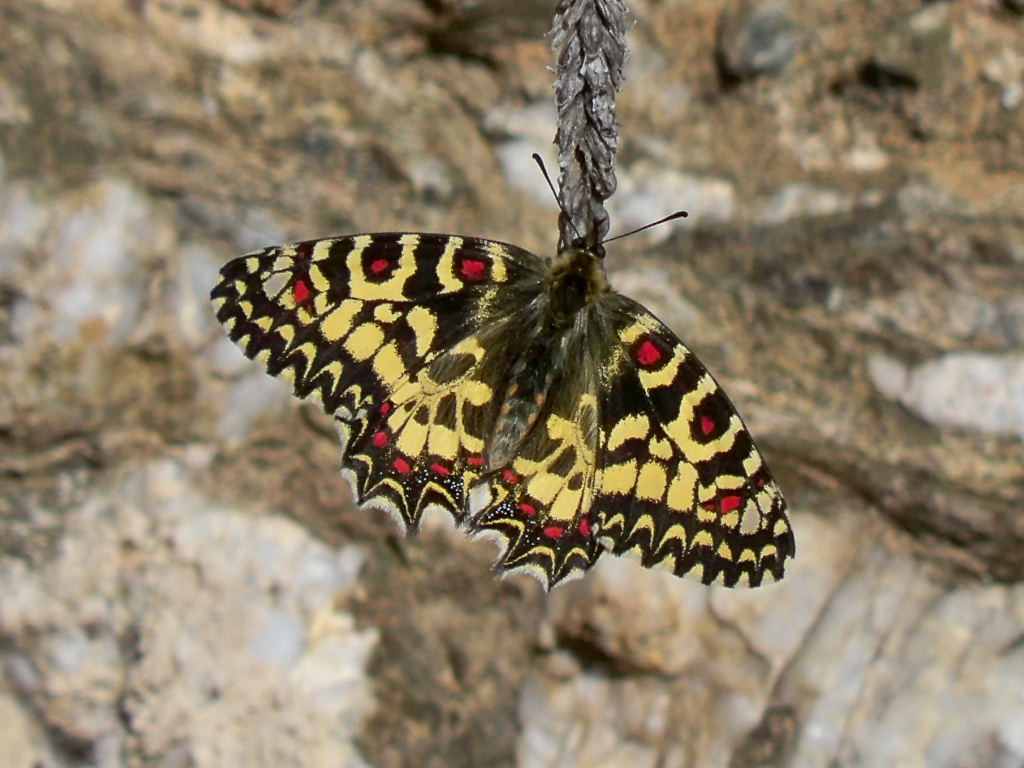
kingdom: Animalia
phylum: Arthropoda
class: Insecta
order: Lepidoptera
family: Papilionidae
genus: Zerynthia
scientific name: Zerynthia rumina
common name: Spanish festoon
